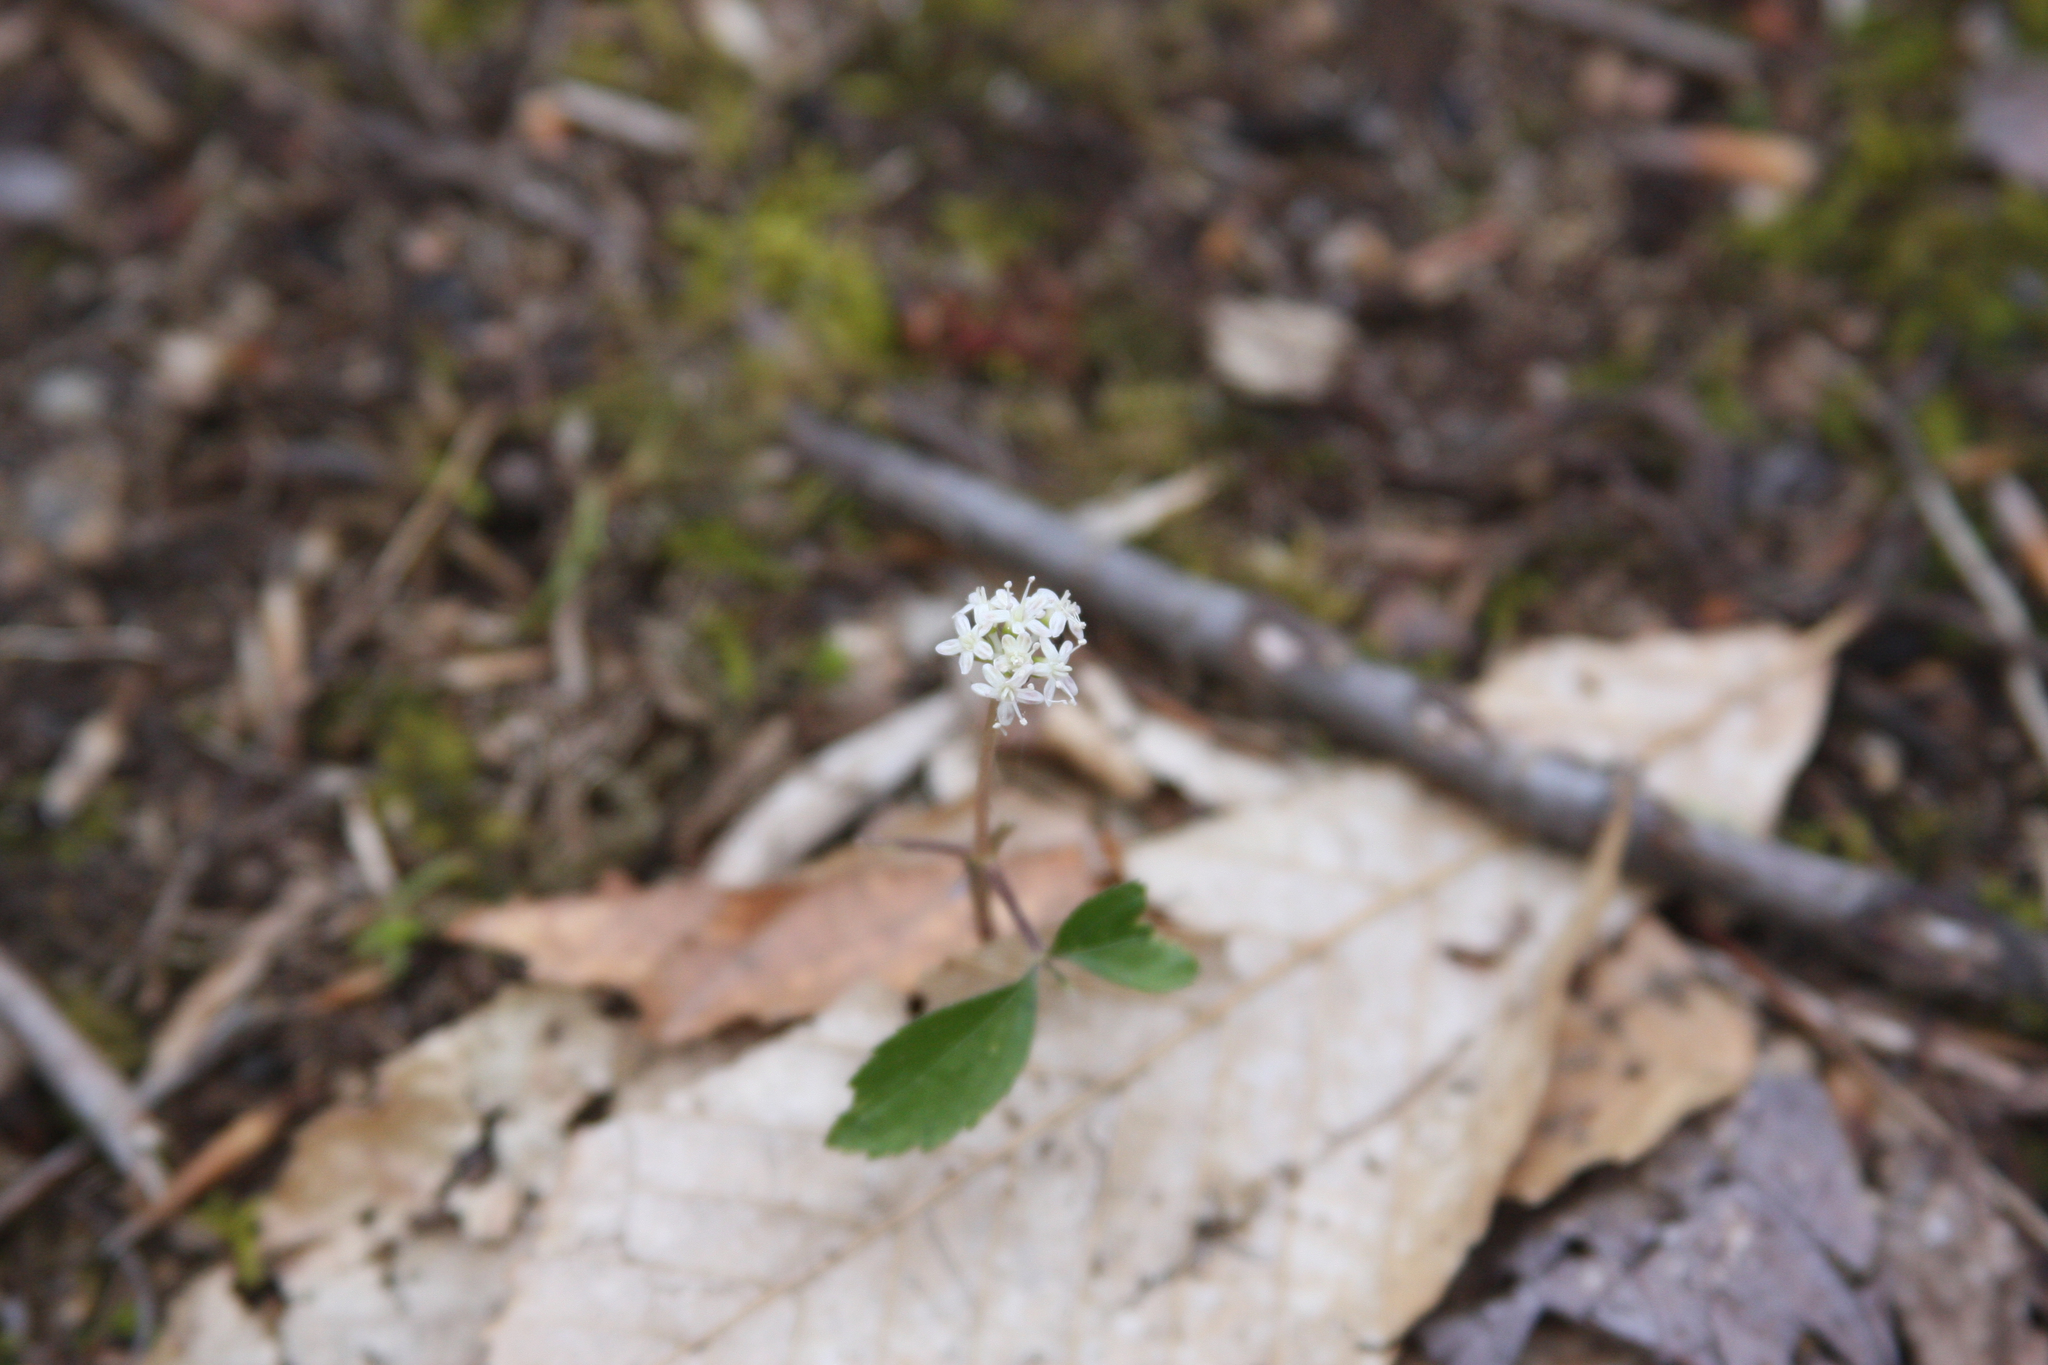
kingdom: Plantae
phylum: Tracheophyta
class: Magnoliopsida
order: Apiales
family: Araliaceae
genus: Panax
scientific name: Panax trifolius
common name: Dwarf ginseng
